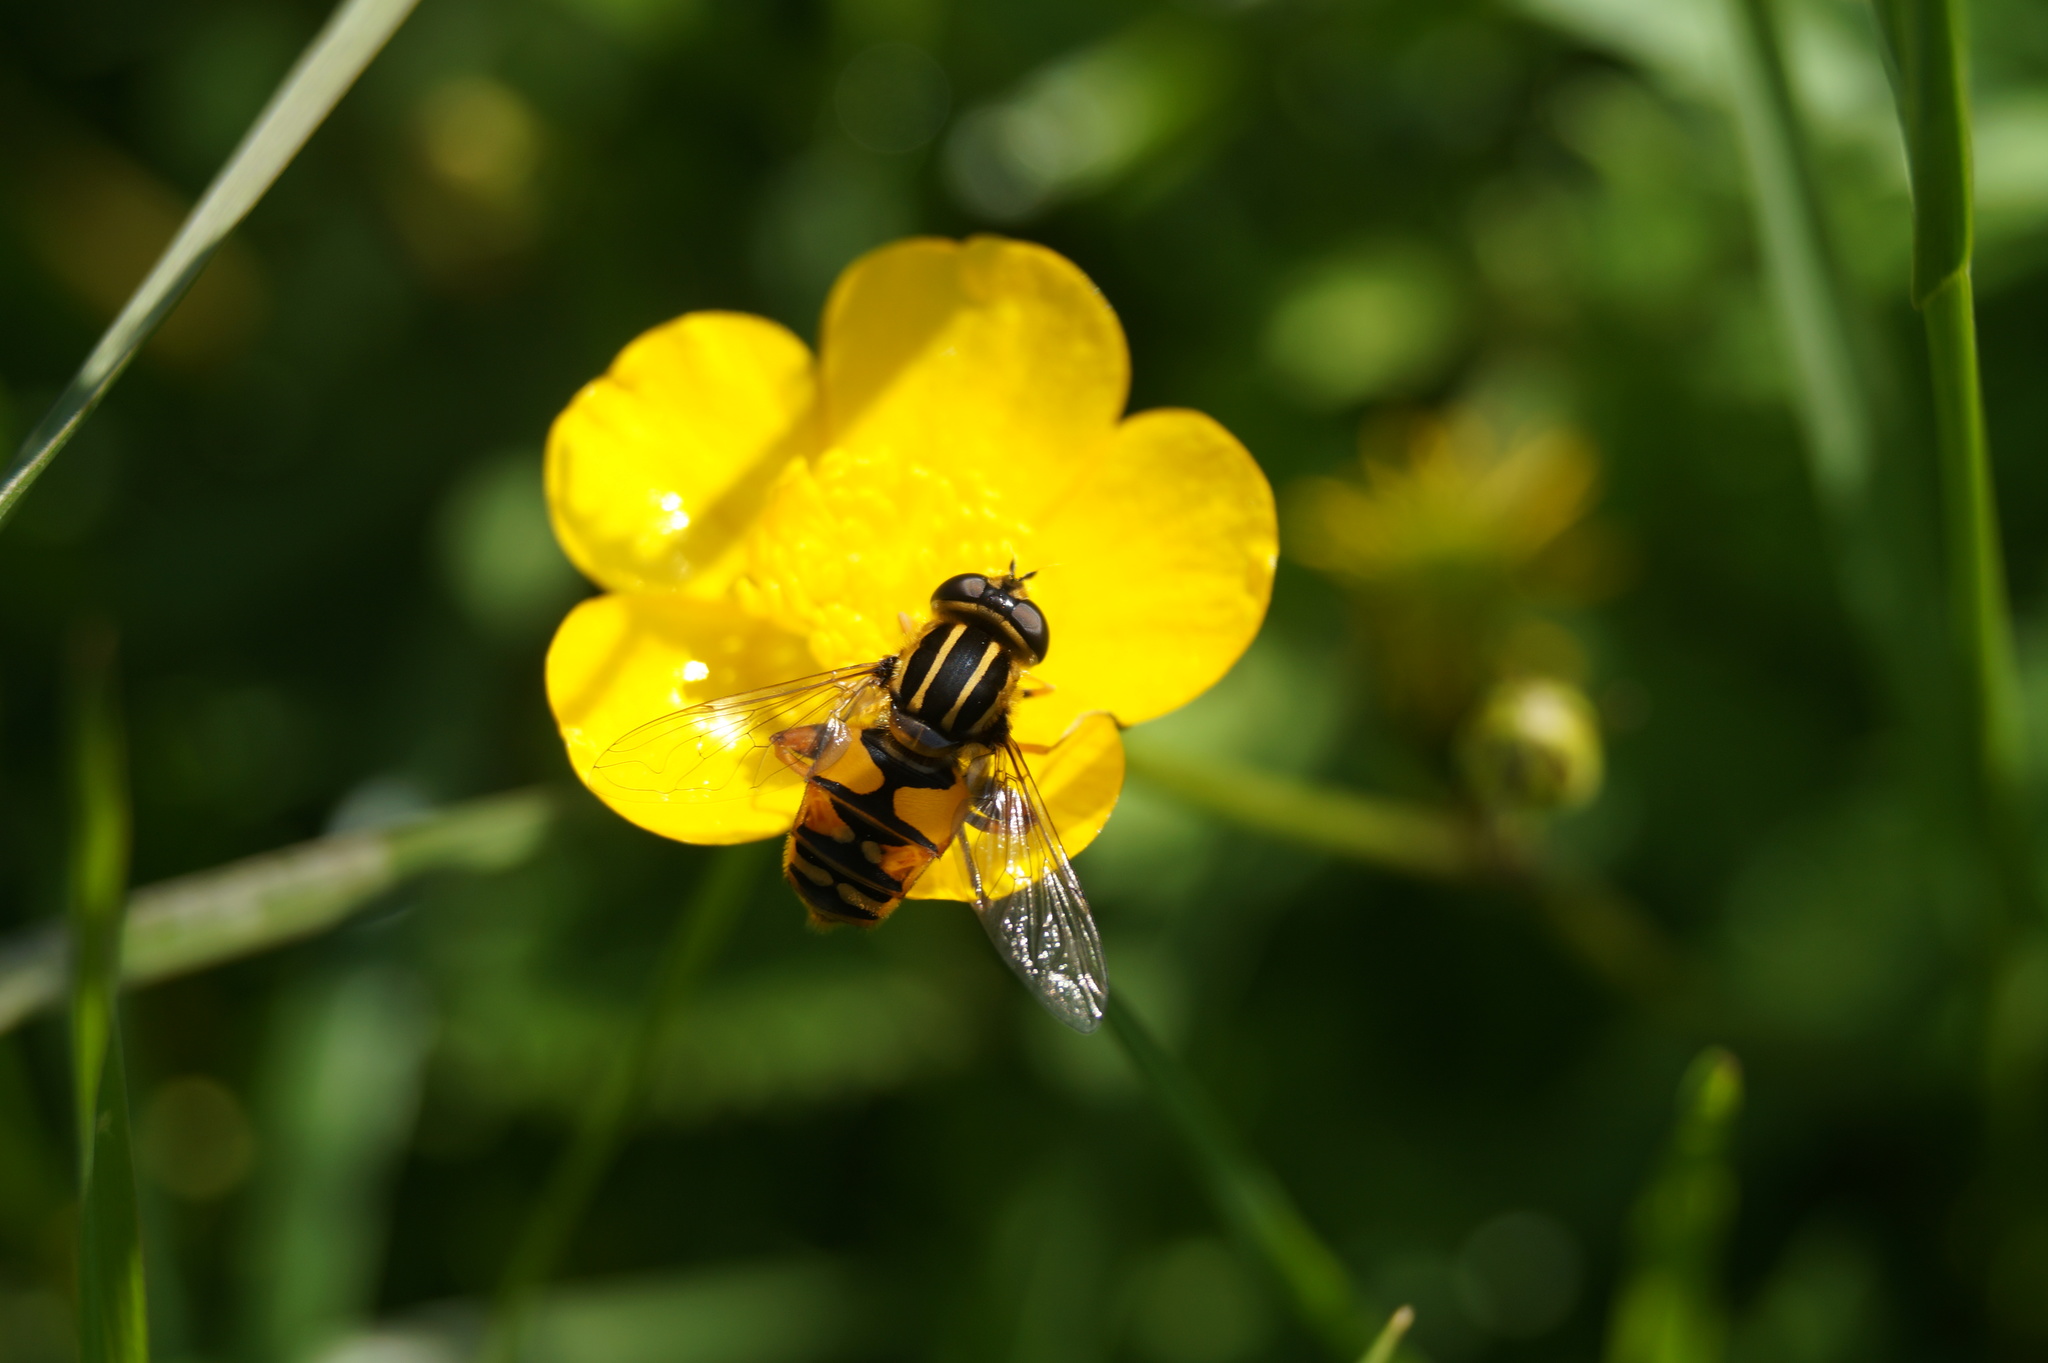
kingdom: Animalia
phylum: Arthropoda
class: Insecta
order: Diptera
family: Syrphidae
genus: Helophilus
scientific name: Helophilus pendulus
